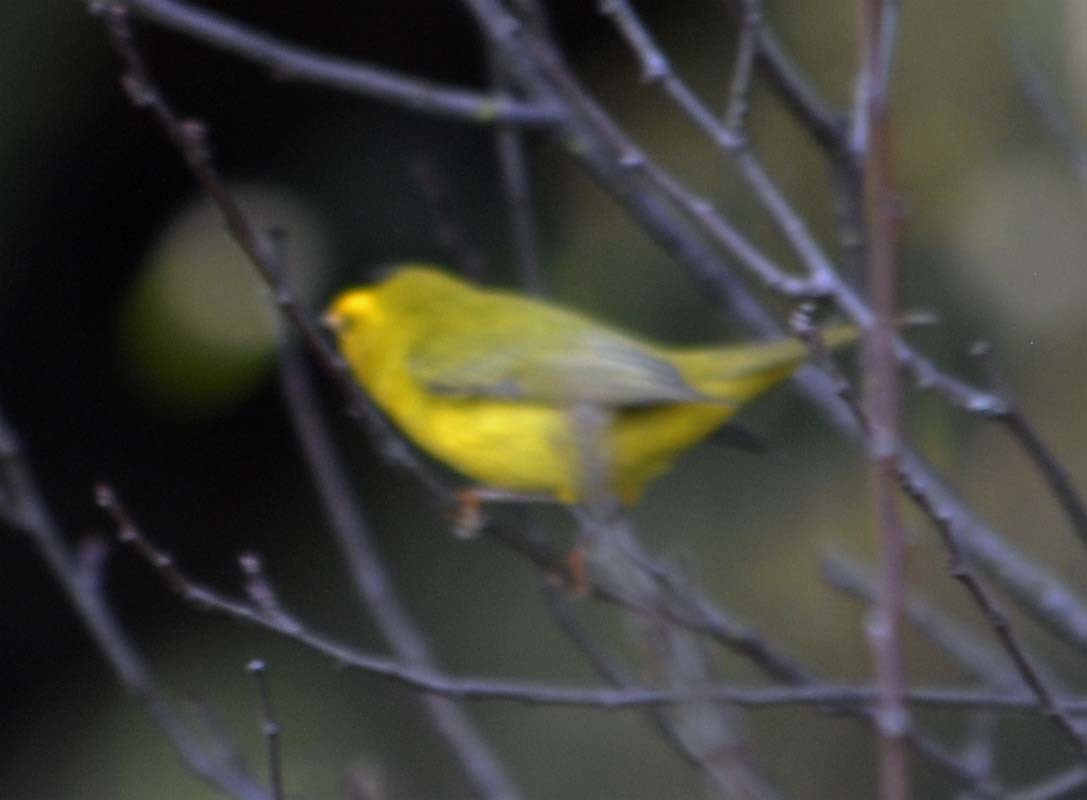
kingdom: Animalia
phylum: Chordata
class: Aves
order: Passeriformes
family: Parulidae
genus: Cardellina
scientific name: Cardellina pusilla
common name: Wilson's warbler
